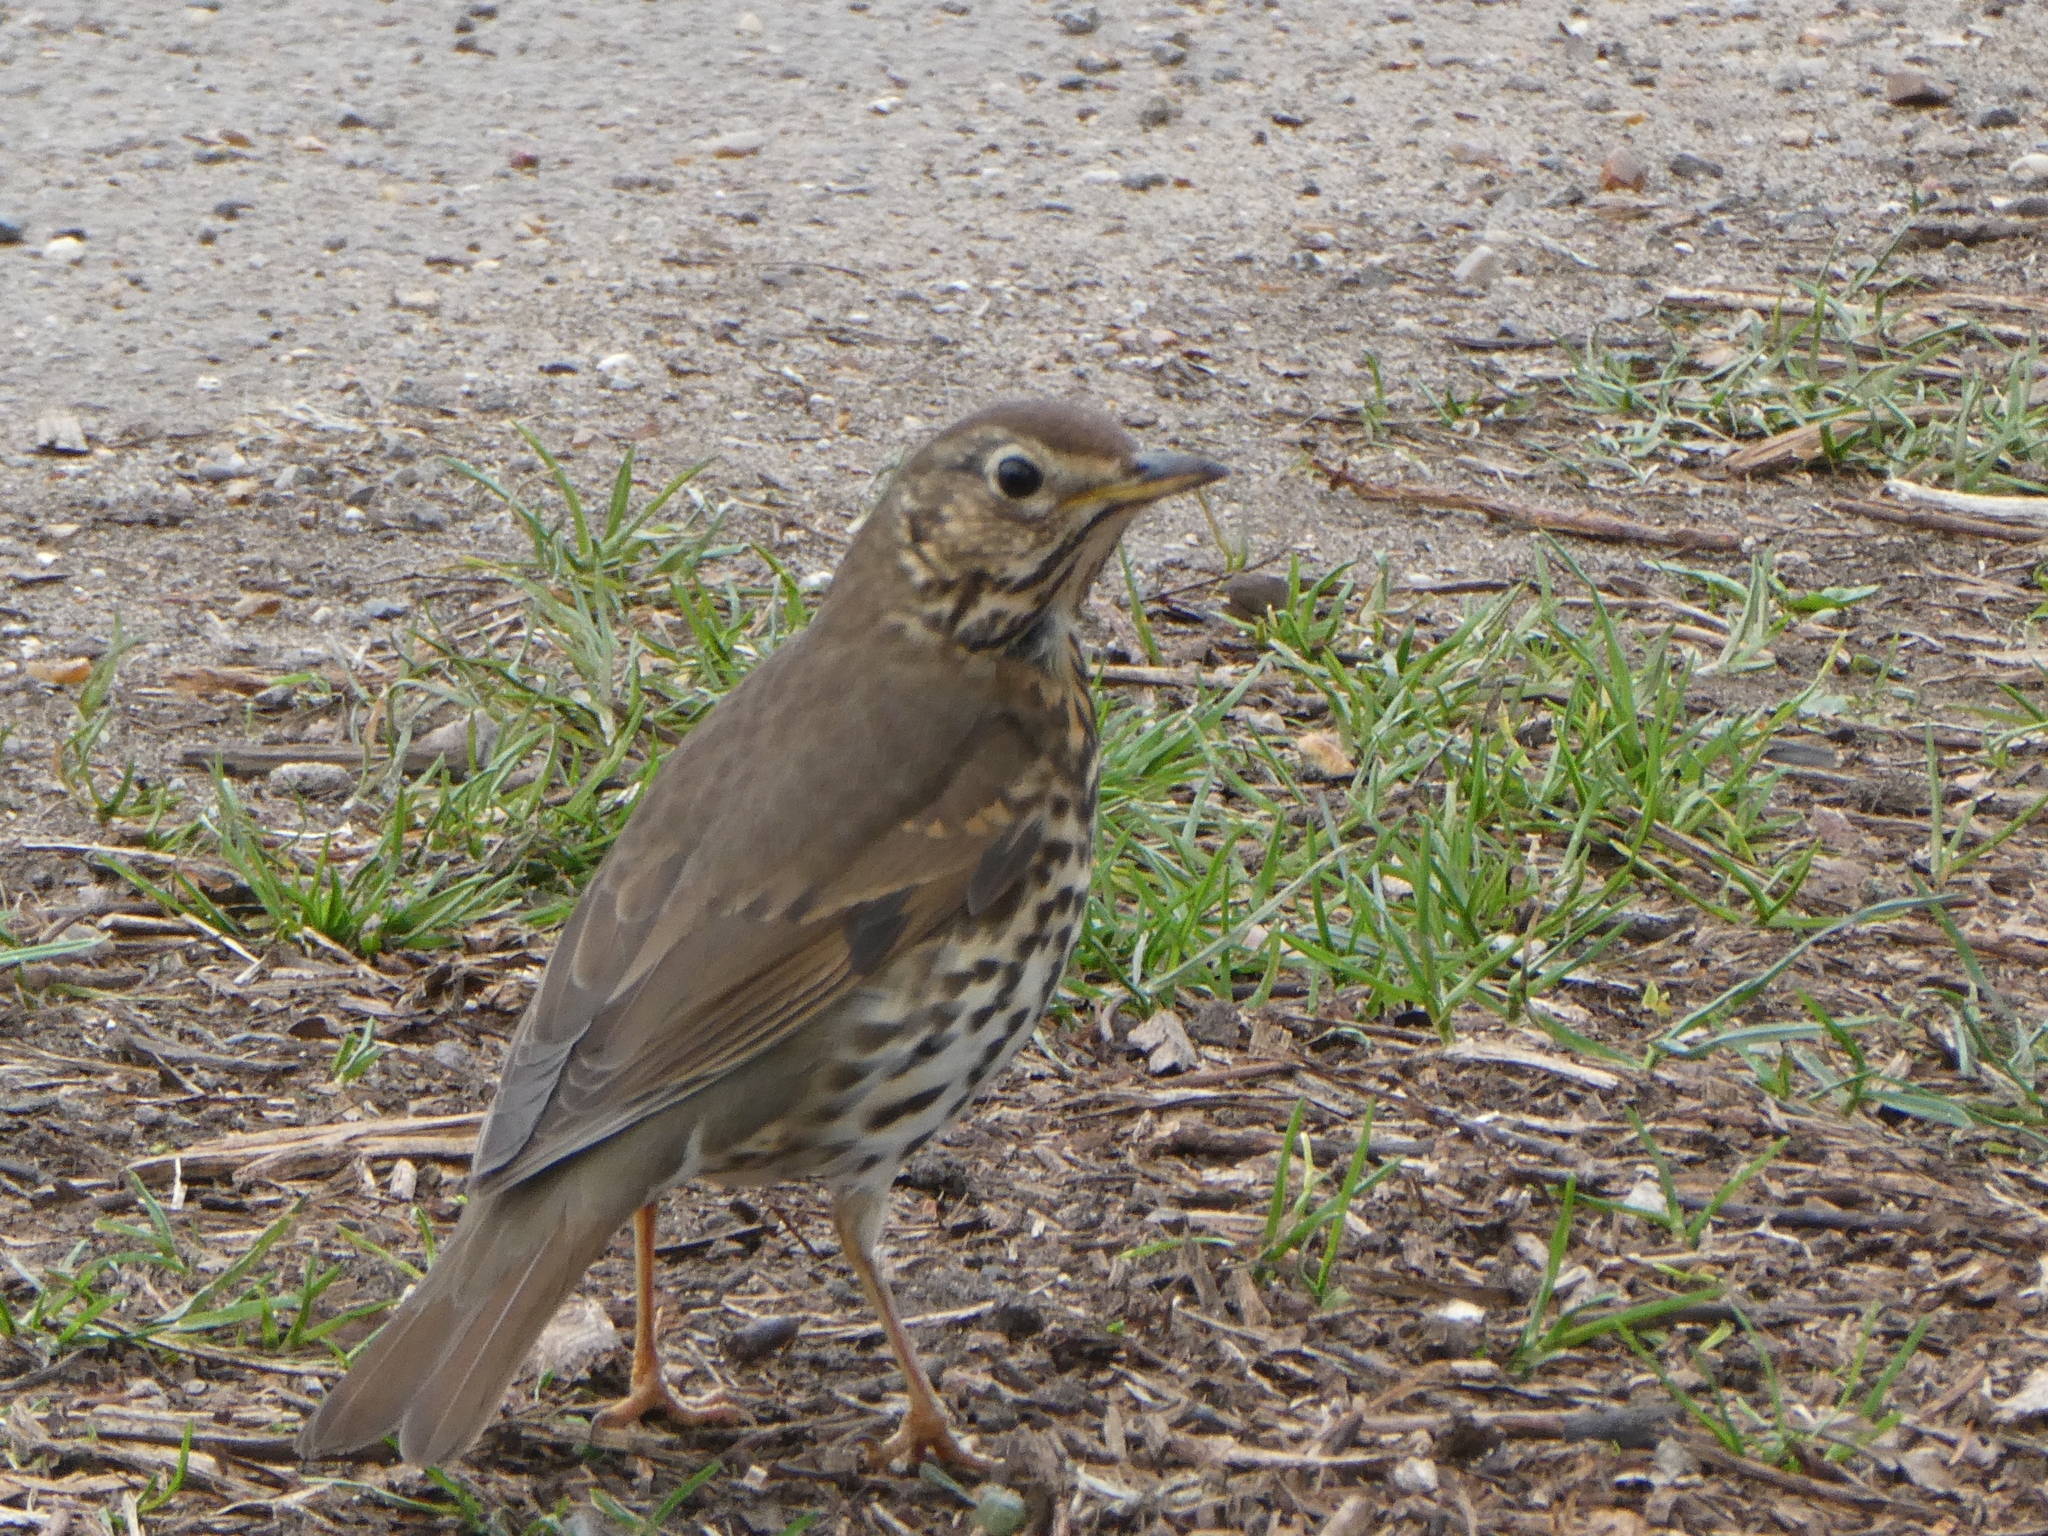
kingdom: Animalia
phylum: Chordata
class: Aves
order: Passeriformes
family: Turdidae
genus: Turdus
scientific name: Turdus philomelos
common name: Song thrush
